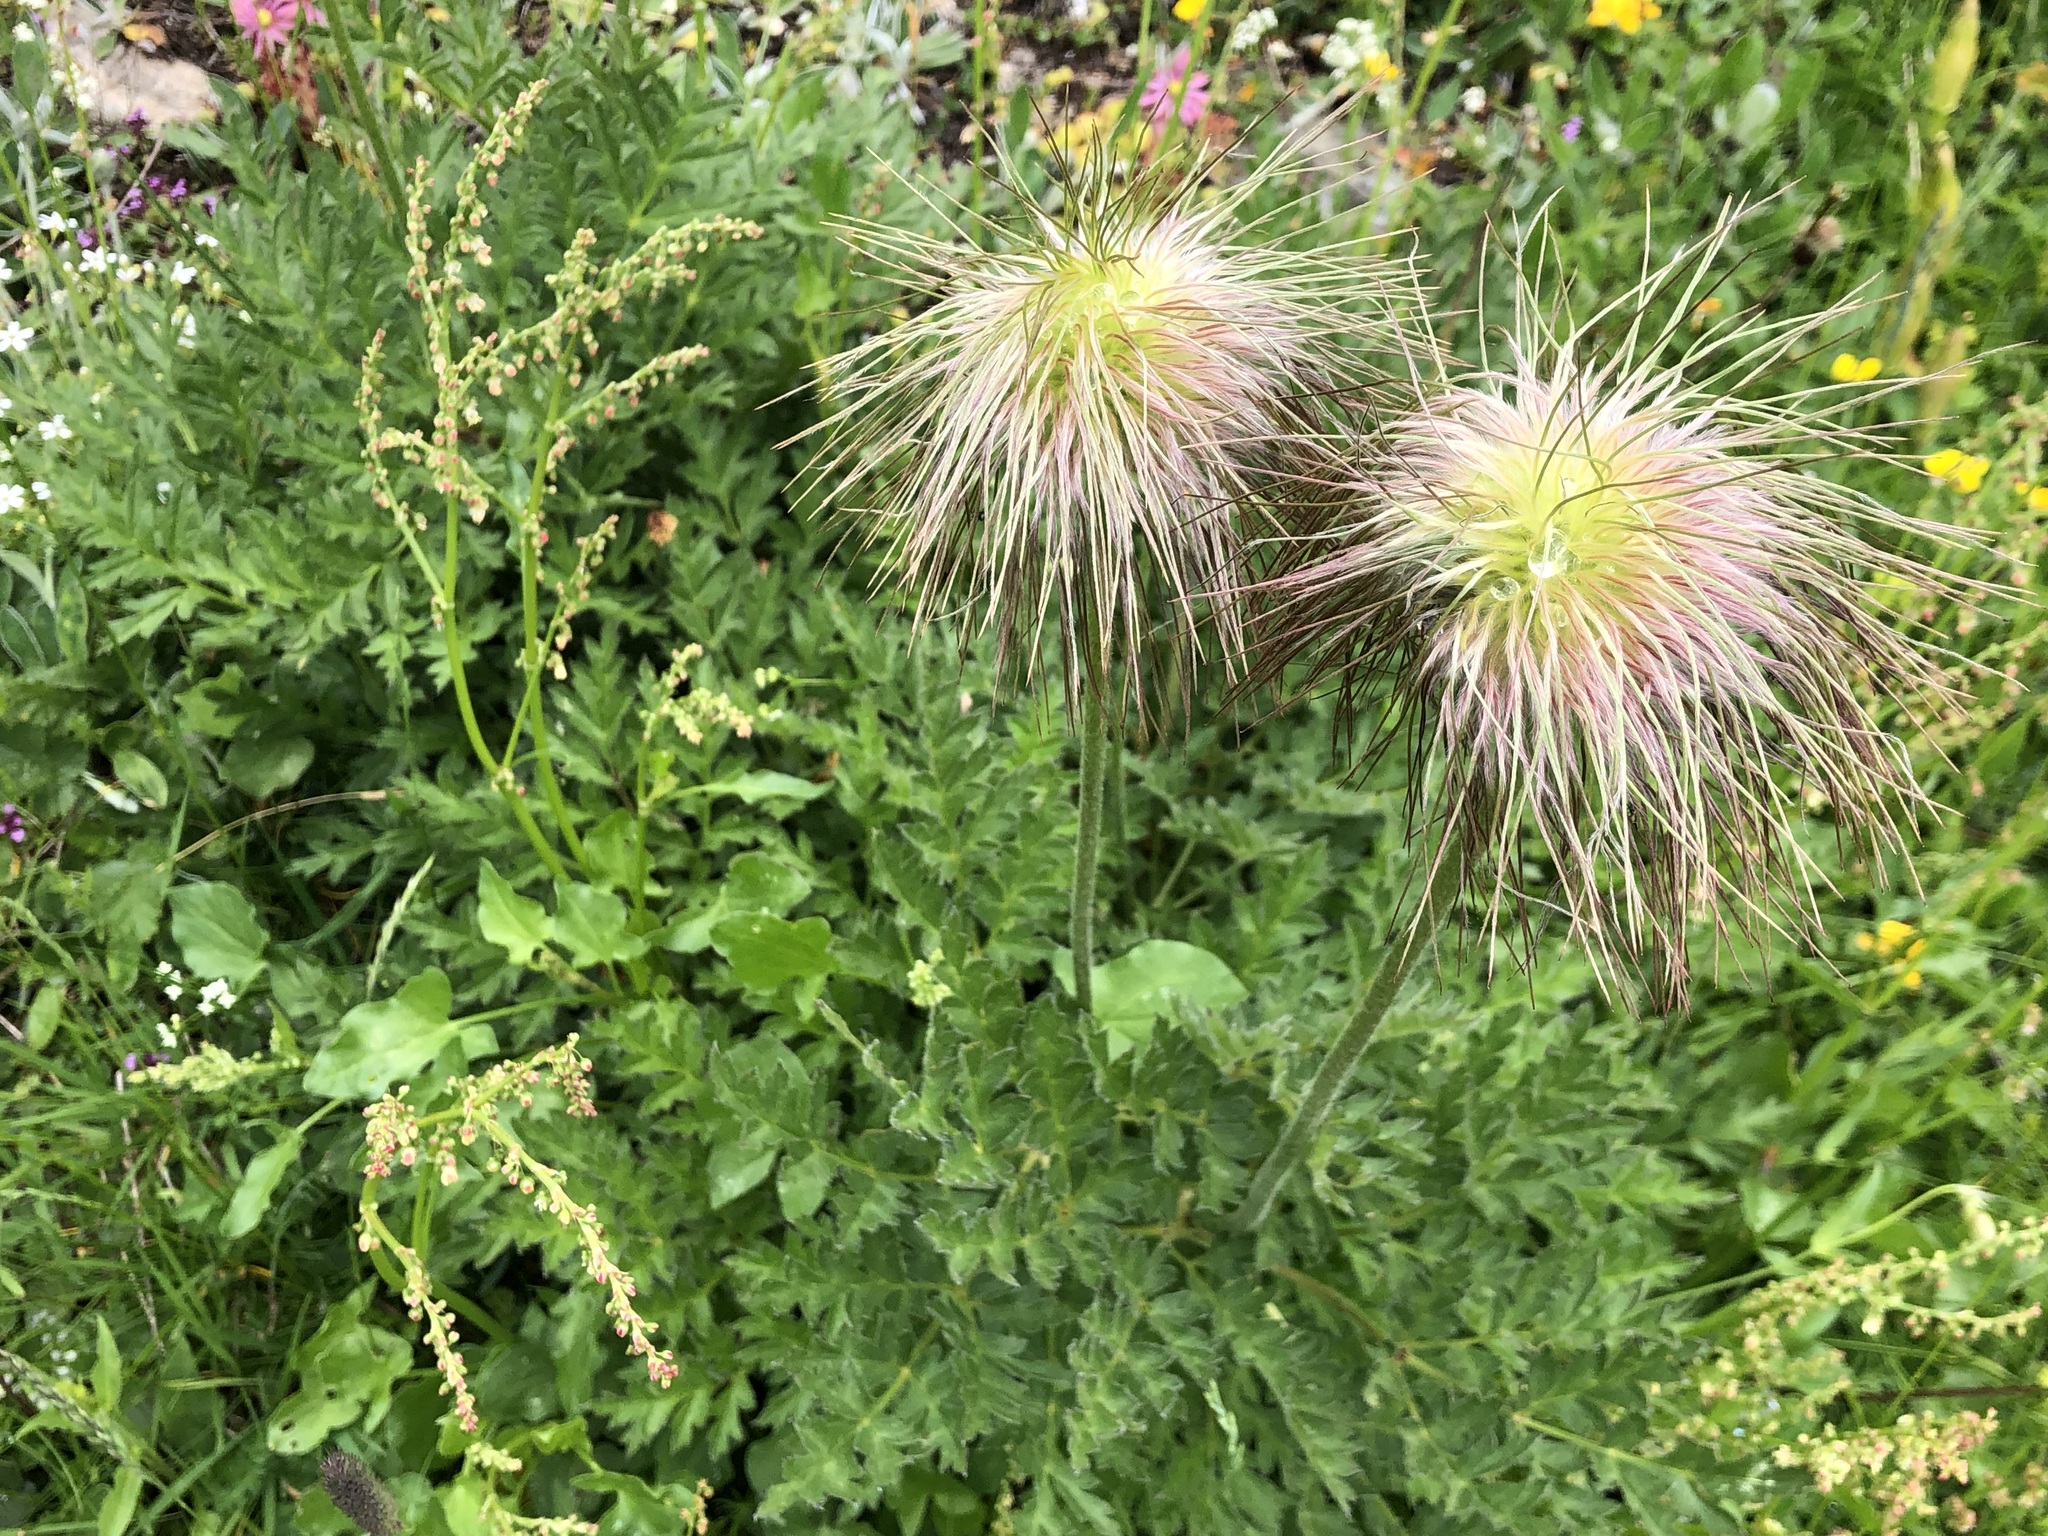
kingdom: Plantae
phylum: Tracheophyta
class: Magnoliopsida
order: Ranunculales
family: Ranunculaceae
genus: Pulsatilla
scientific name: Pulsatilla alpina
